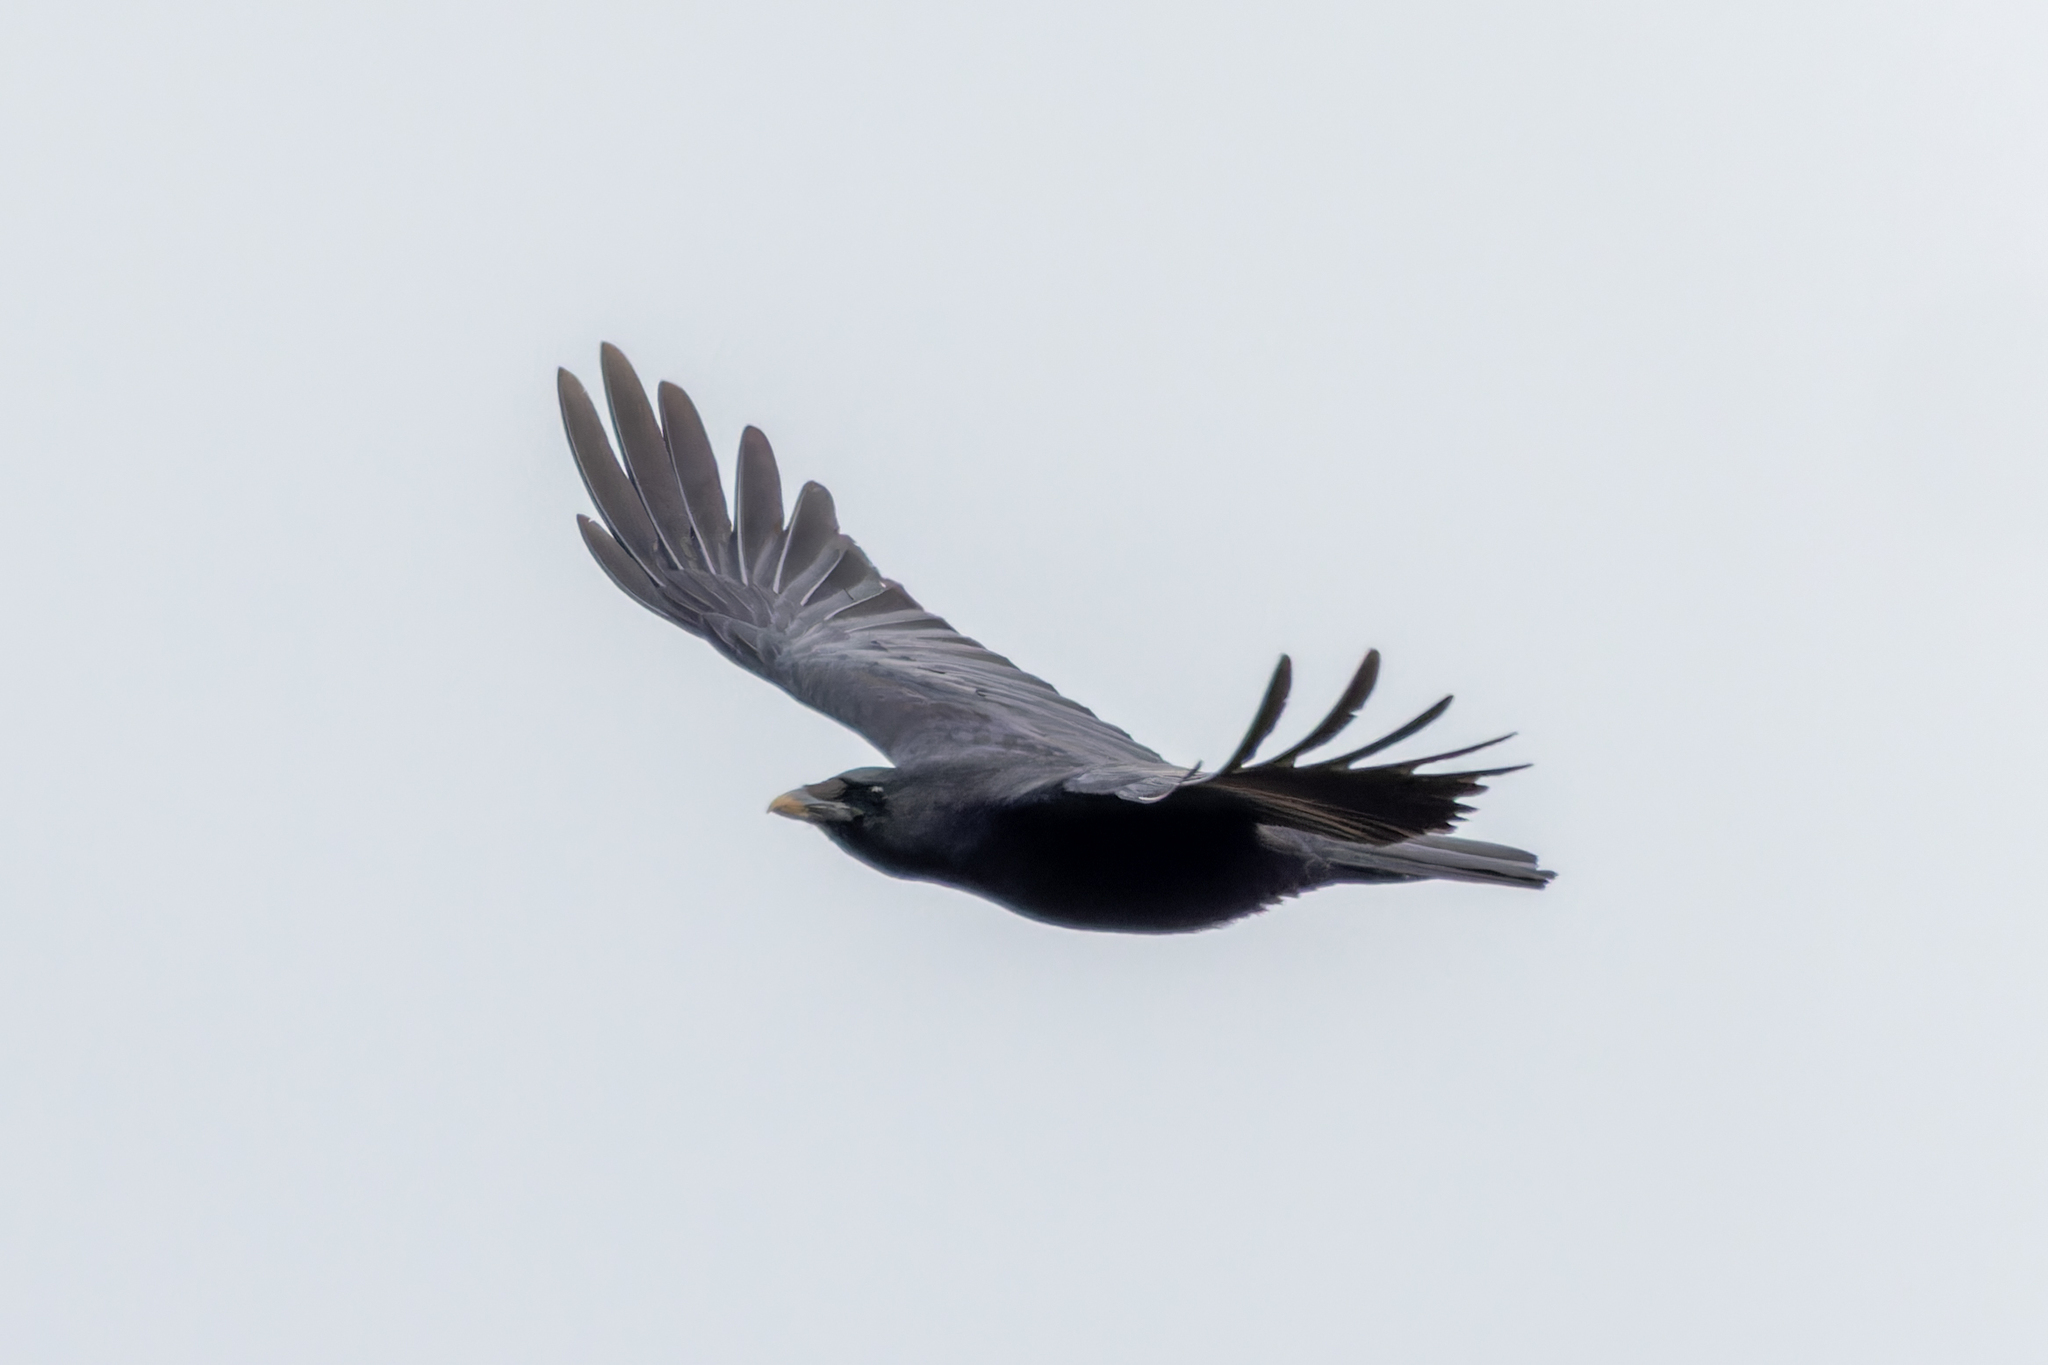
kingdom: Animalia
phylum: Chordata
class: Aves
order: Passeriformes
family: Corvidae
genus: Corvus
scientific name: Corvus corone
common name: Carrion crow
